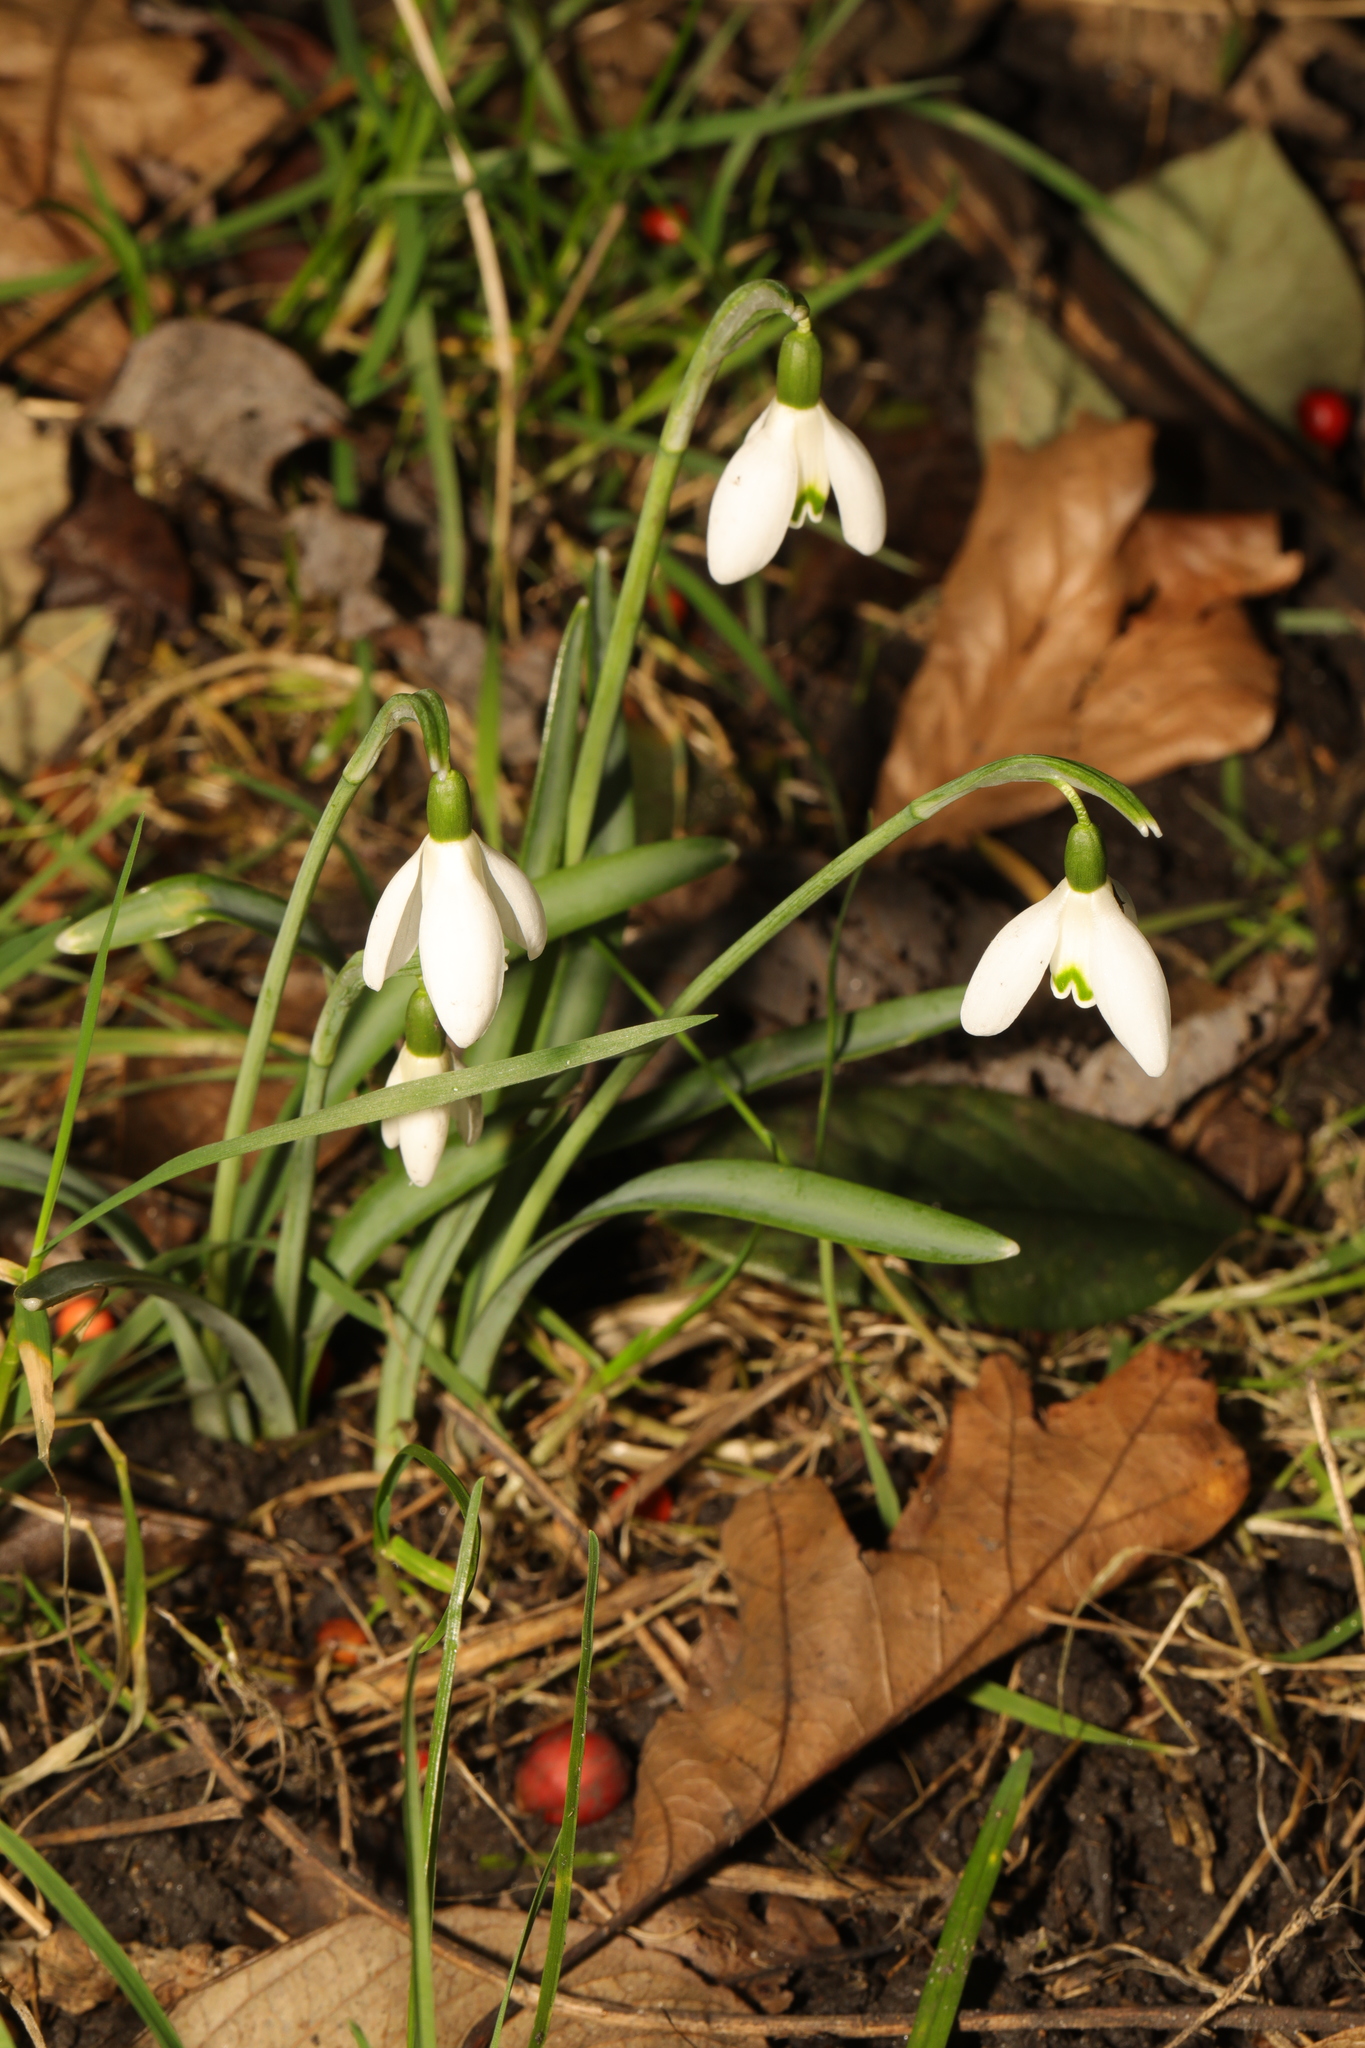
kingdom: Plantae
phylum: Tracheophyta
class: Liliopsida
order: Asparagales
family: Amaryllidaceae
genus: Galanthus
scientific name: Galanthus nivalis
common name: Snowdrop
